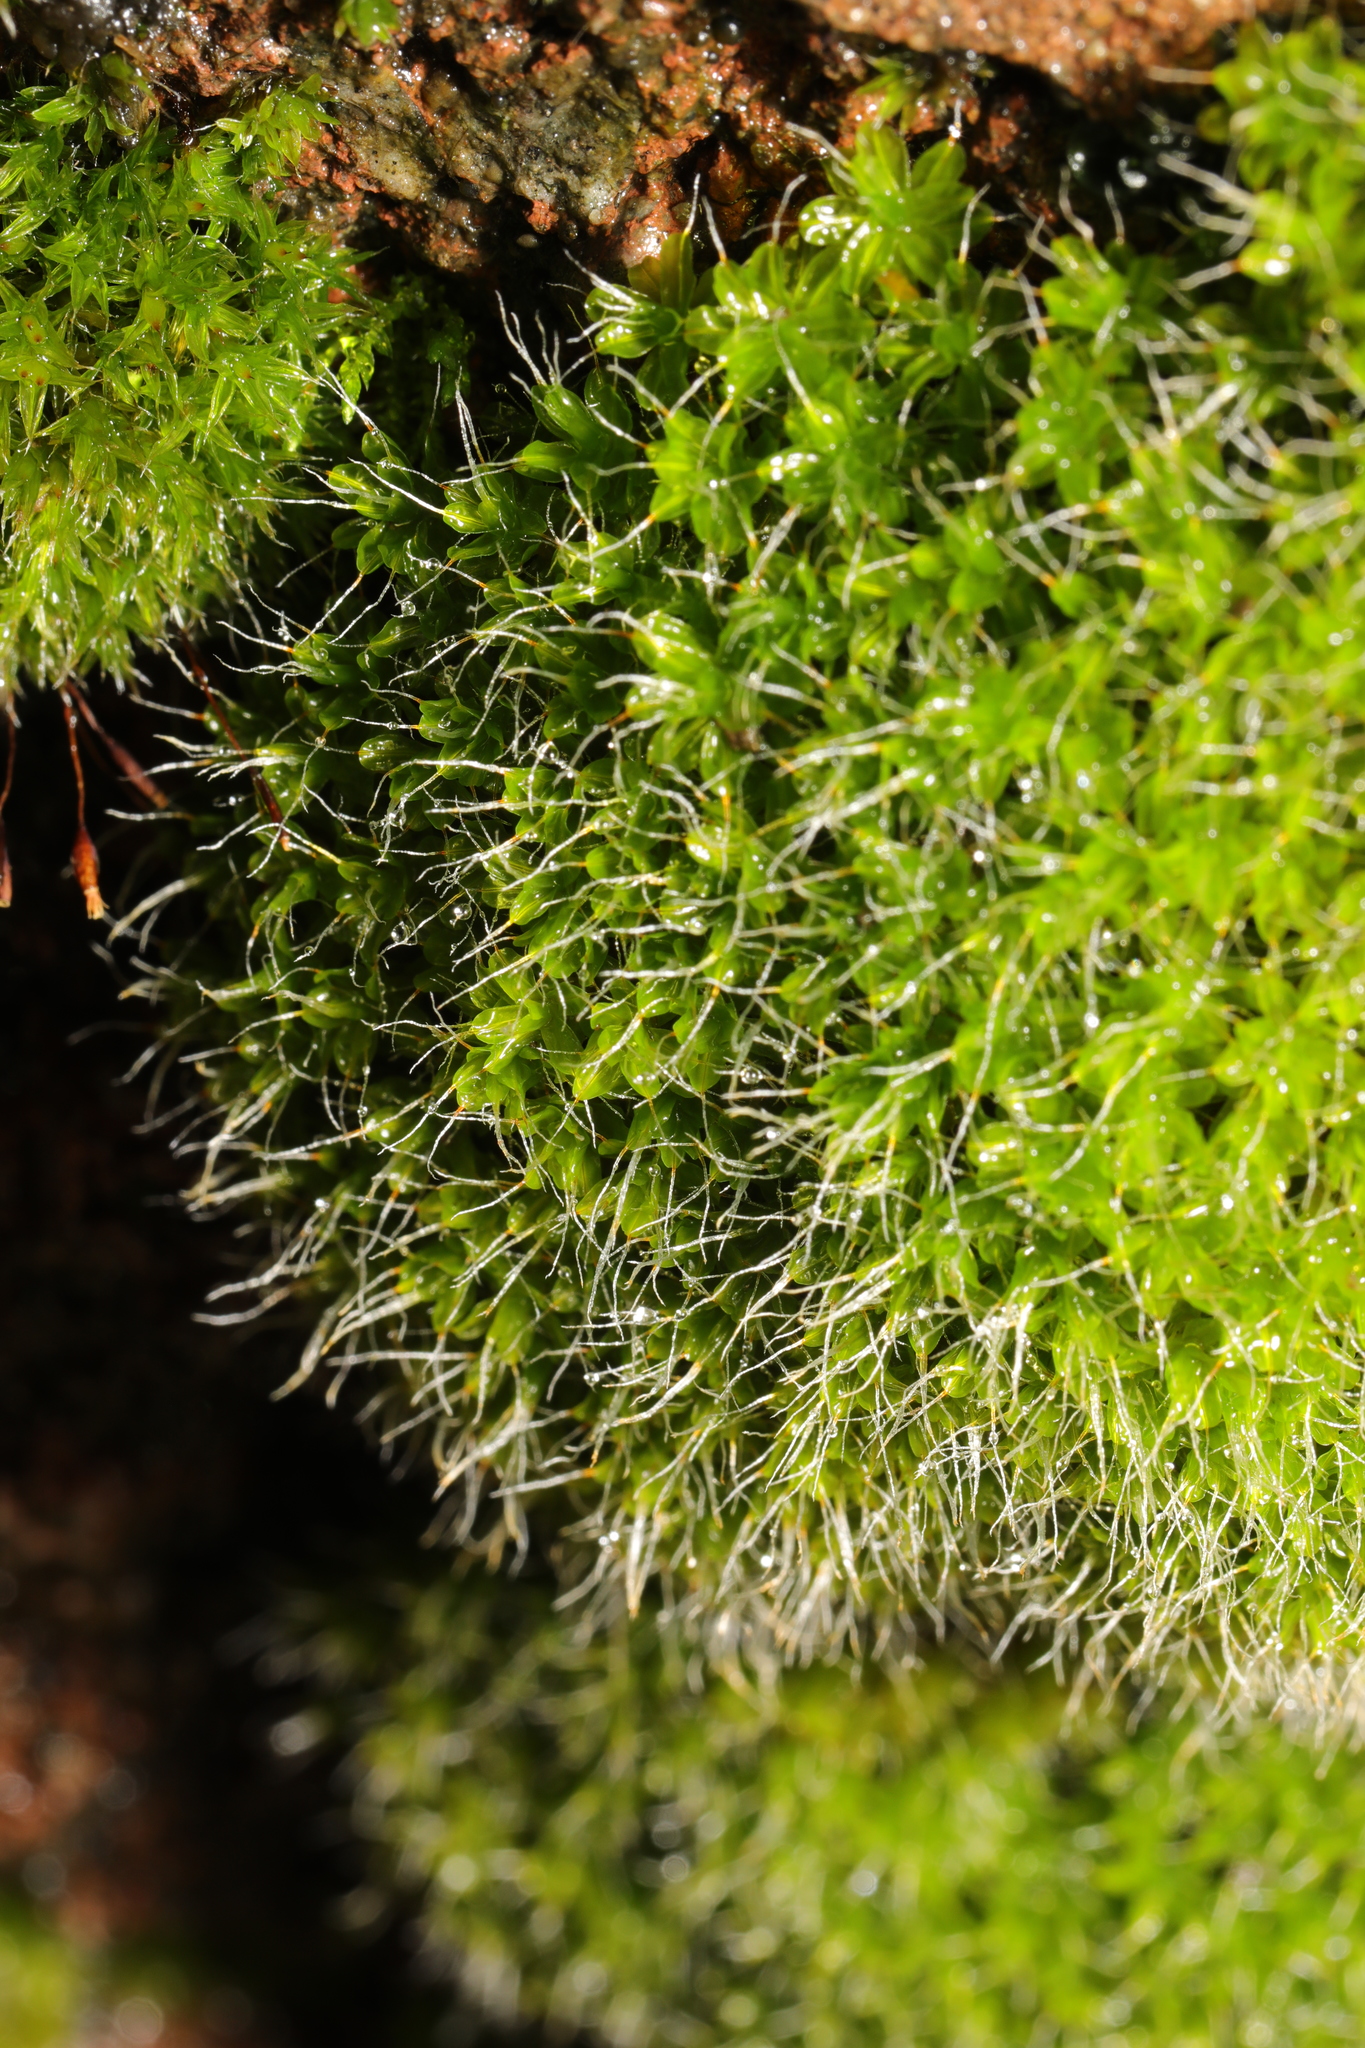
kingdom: Plantae
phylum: Bryophyta
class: Bryopsida
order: Pottiales
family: Pottiaceae
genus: Syntrichia
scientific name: Syntrichia montana
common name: Intermediate screw-moss
